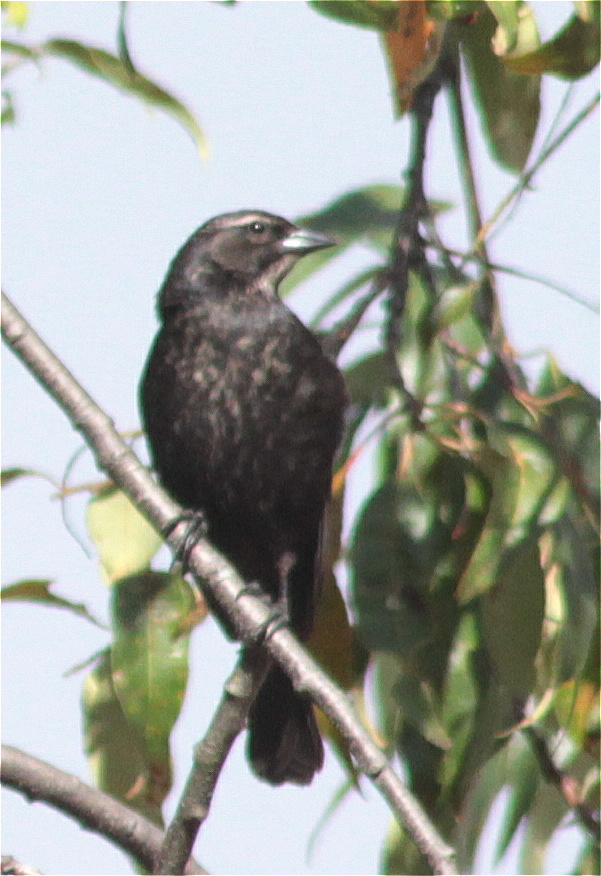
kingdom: Animalia
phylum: Chordata
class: Aves
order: Passeriformes
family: Icteridae
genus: Molothrus
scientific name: Molothrus bonariensis
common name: Shiny cowbird
